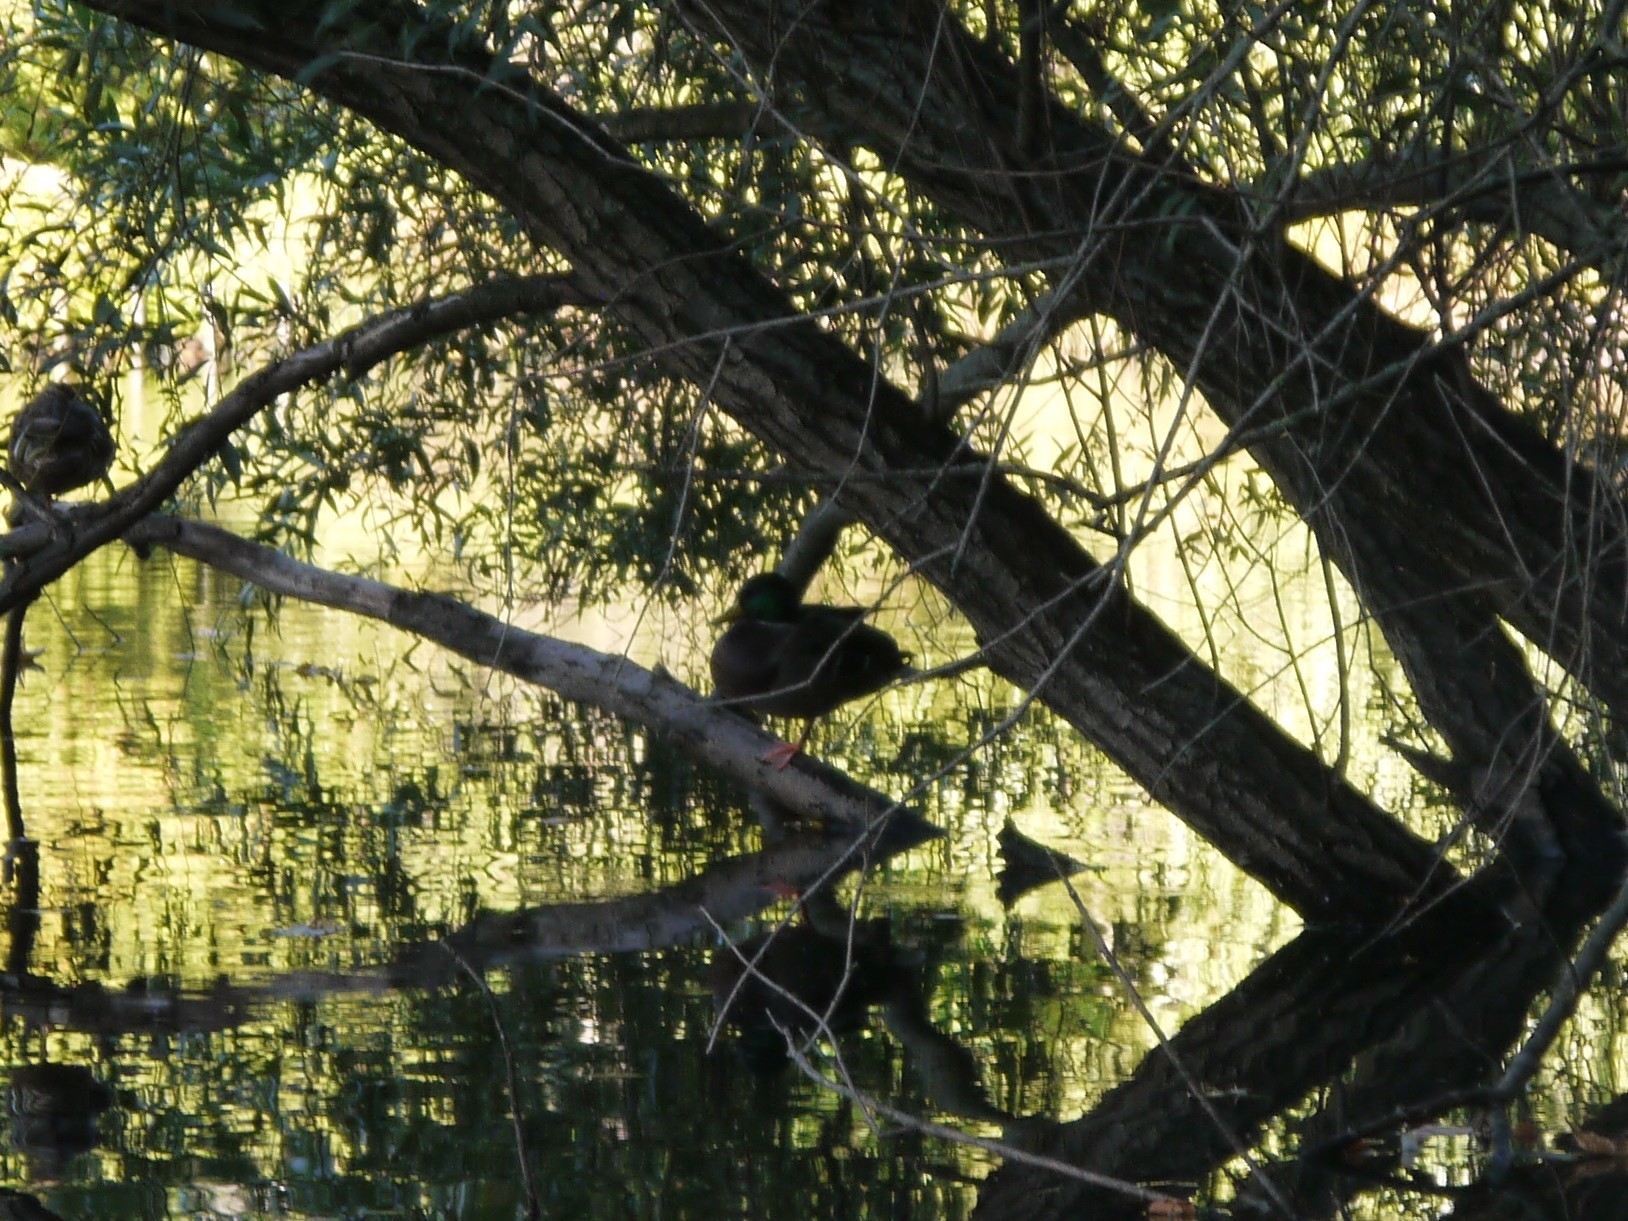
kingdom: Animalia
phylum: Chordata
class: Aves
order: Anseriformes
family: Anatidae
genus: Anas
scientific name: Anas platyrhynchos
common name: Mallard
